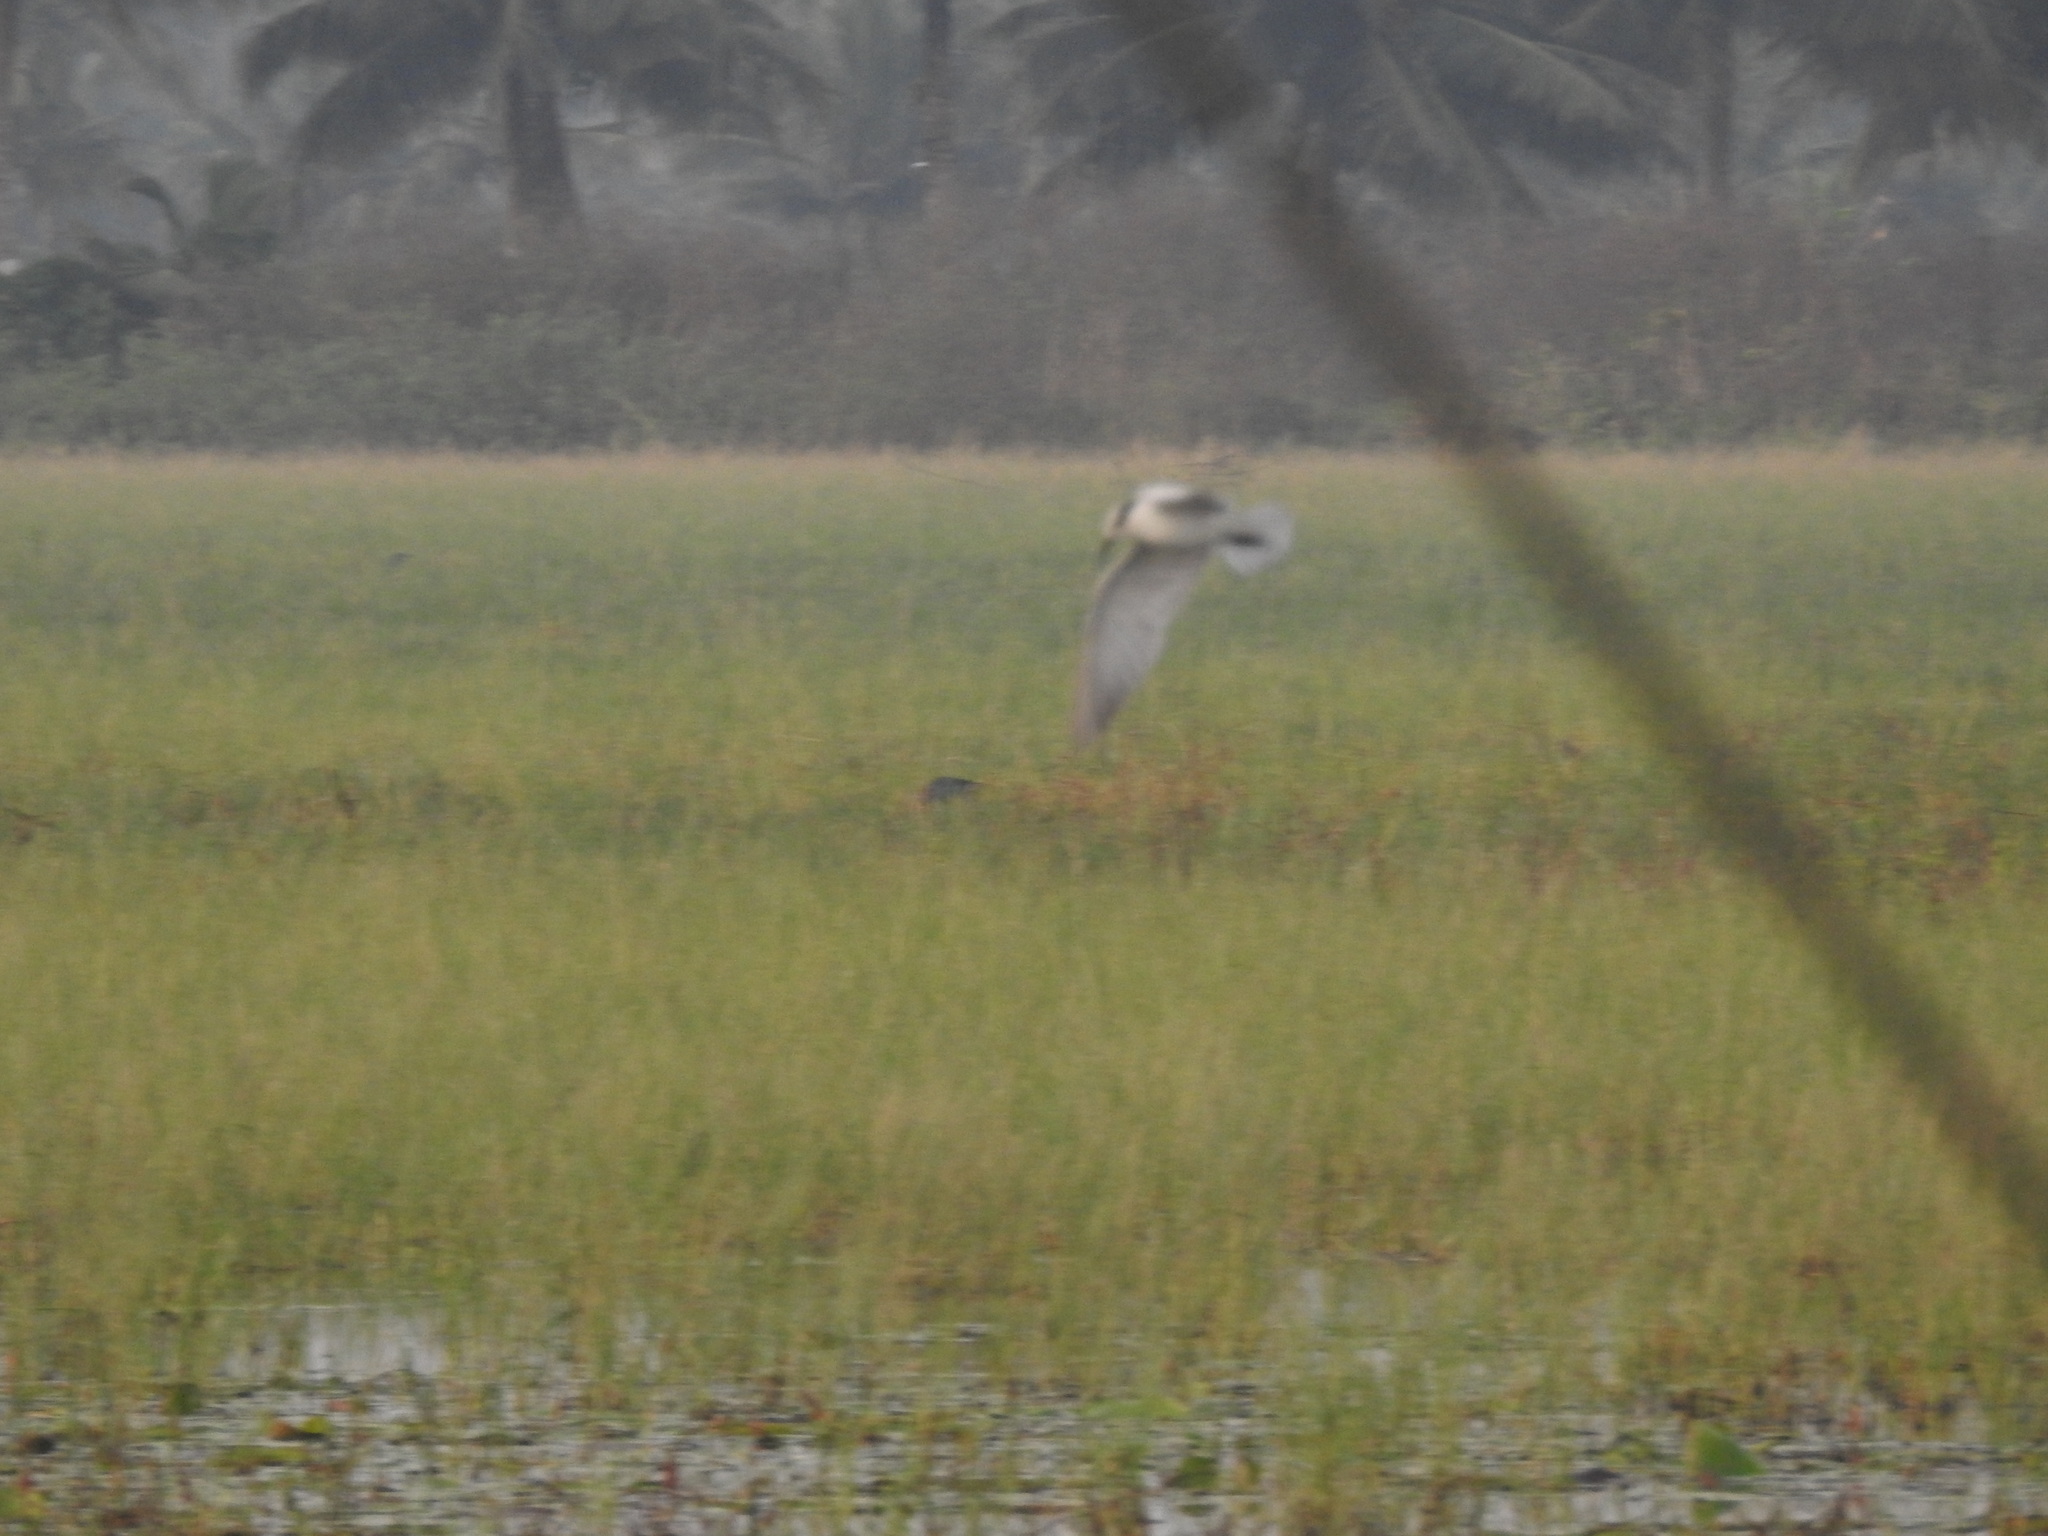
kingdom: Animalia
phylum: Chordata
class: Aves
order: Charadriiformes
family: Laridae
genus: Chlidonias
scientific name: Chlidonias hybrida
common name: Whiskered tern
